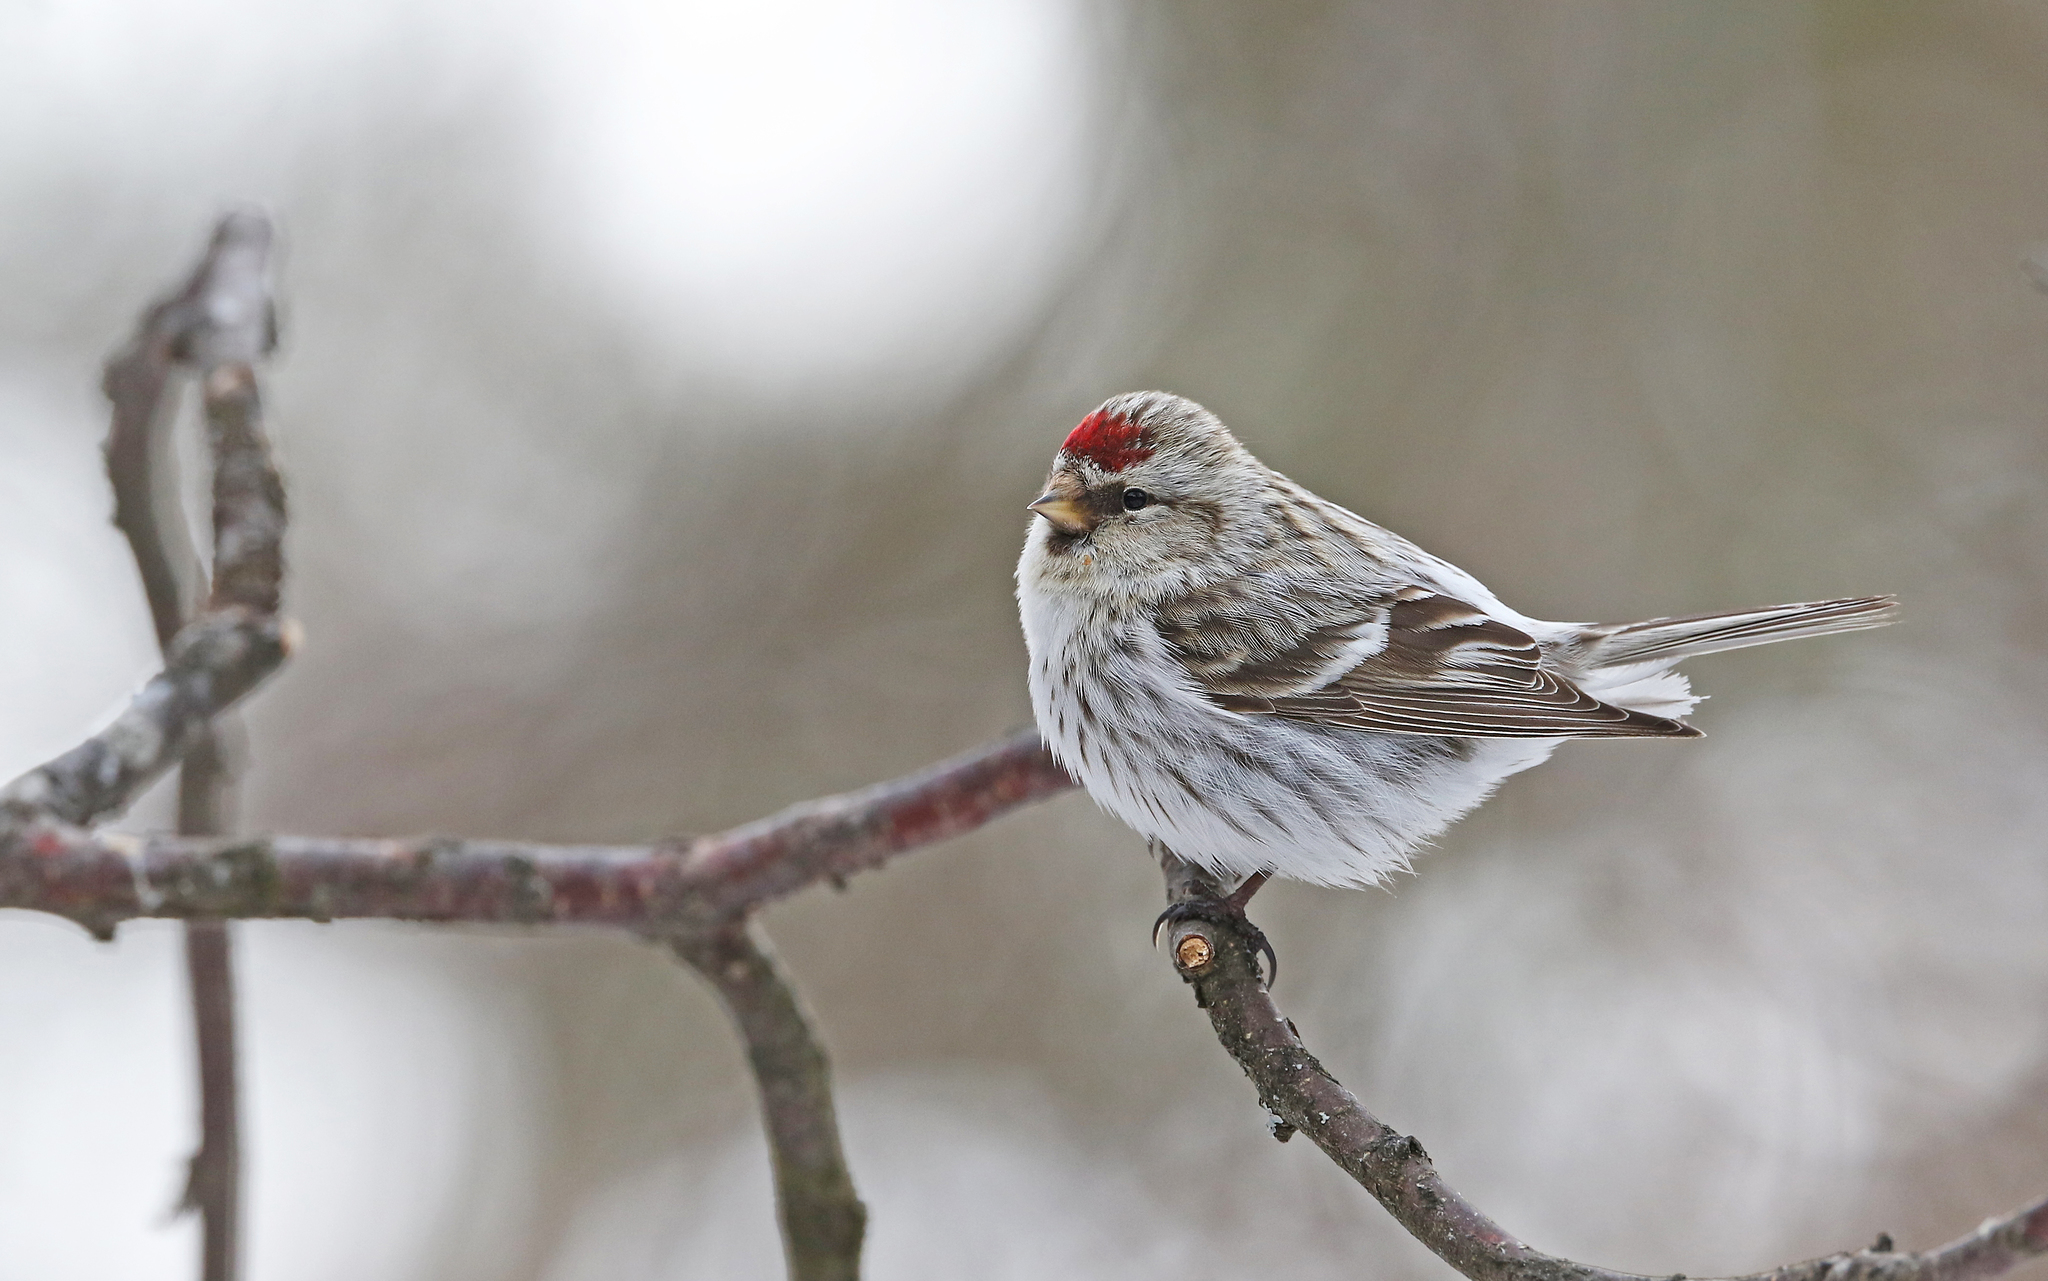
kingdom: Animalia
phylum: Chordata
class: Aves
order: Passeriformes
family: Fringillidae
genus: Acanthis
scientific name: Acanthis flammea
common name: Common redpoll
